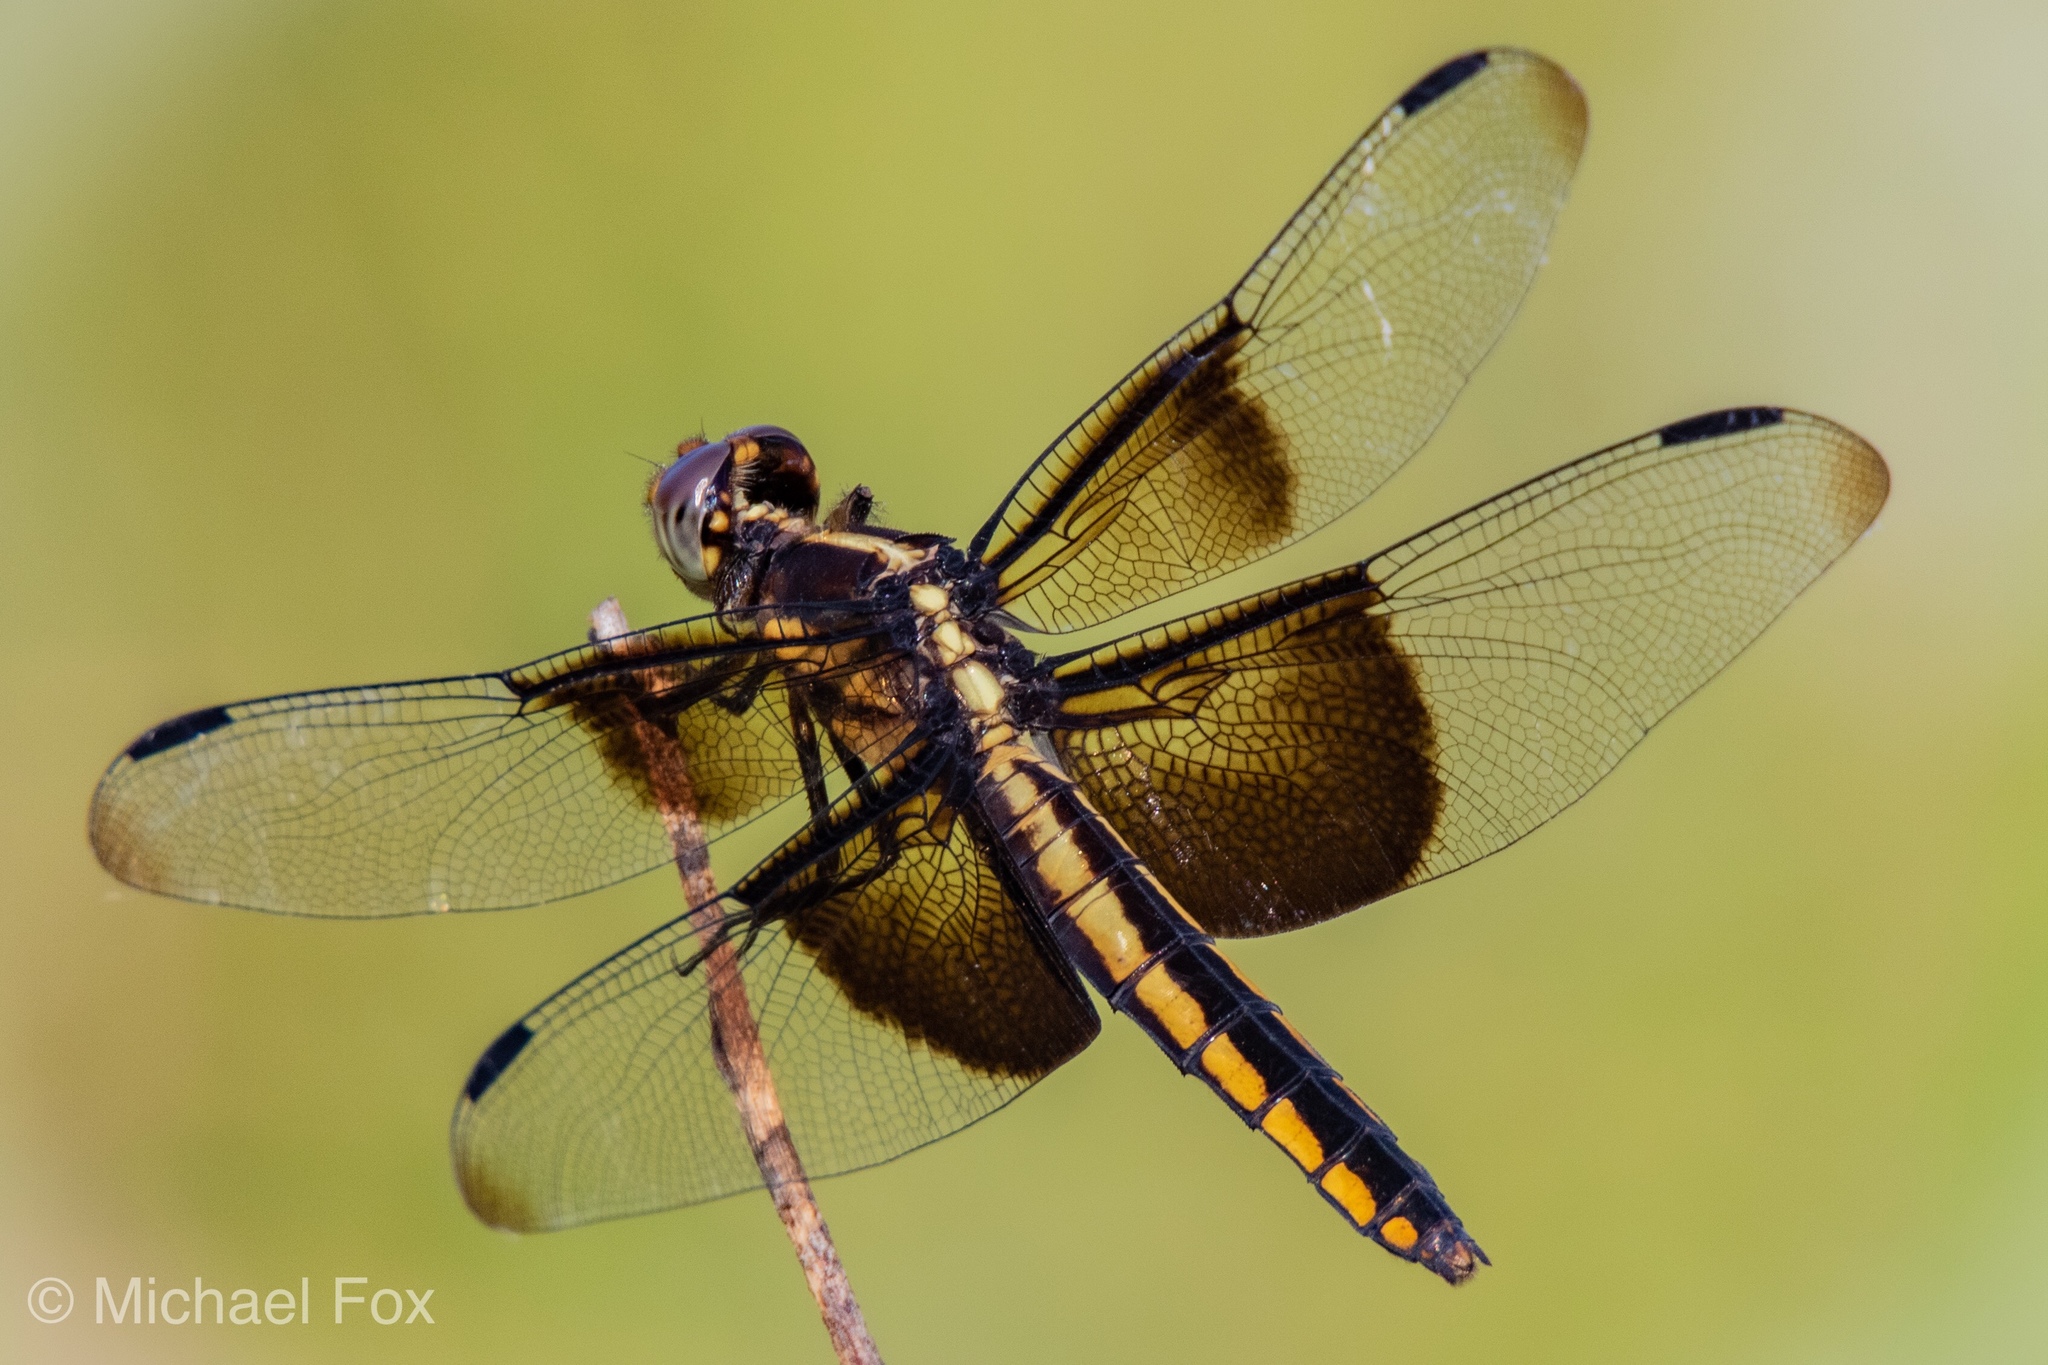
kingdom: Animalia
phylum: Arthropoda
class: Insecta
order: Odonata
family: Libellulidae
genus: Libellula
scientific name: Libellula luctuosa
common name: Widow skimmer
